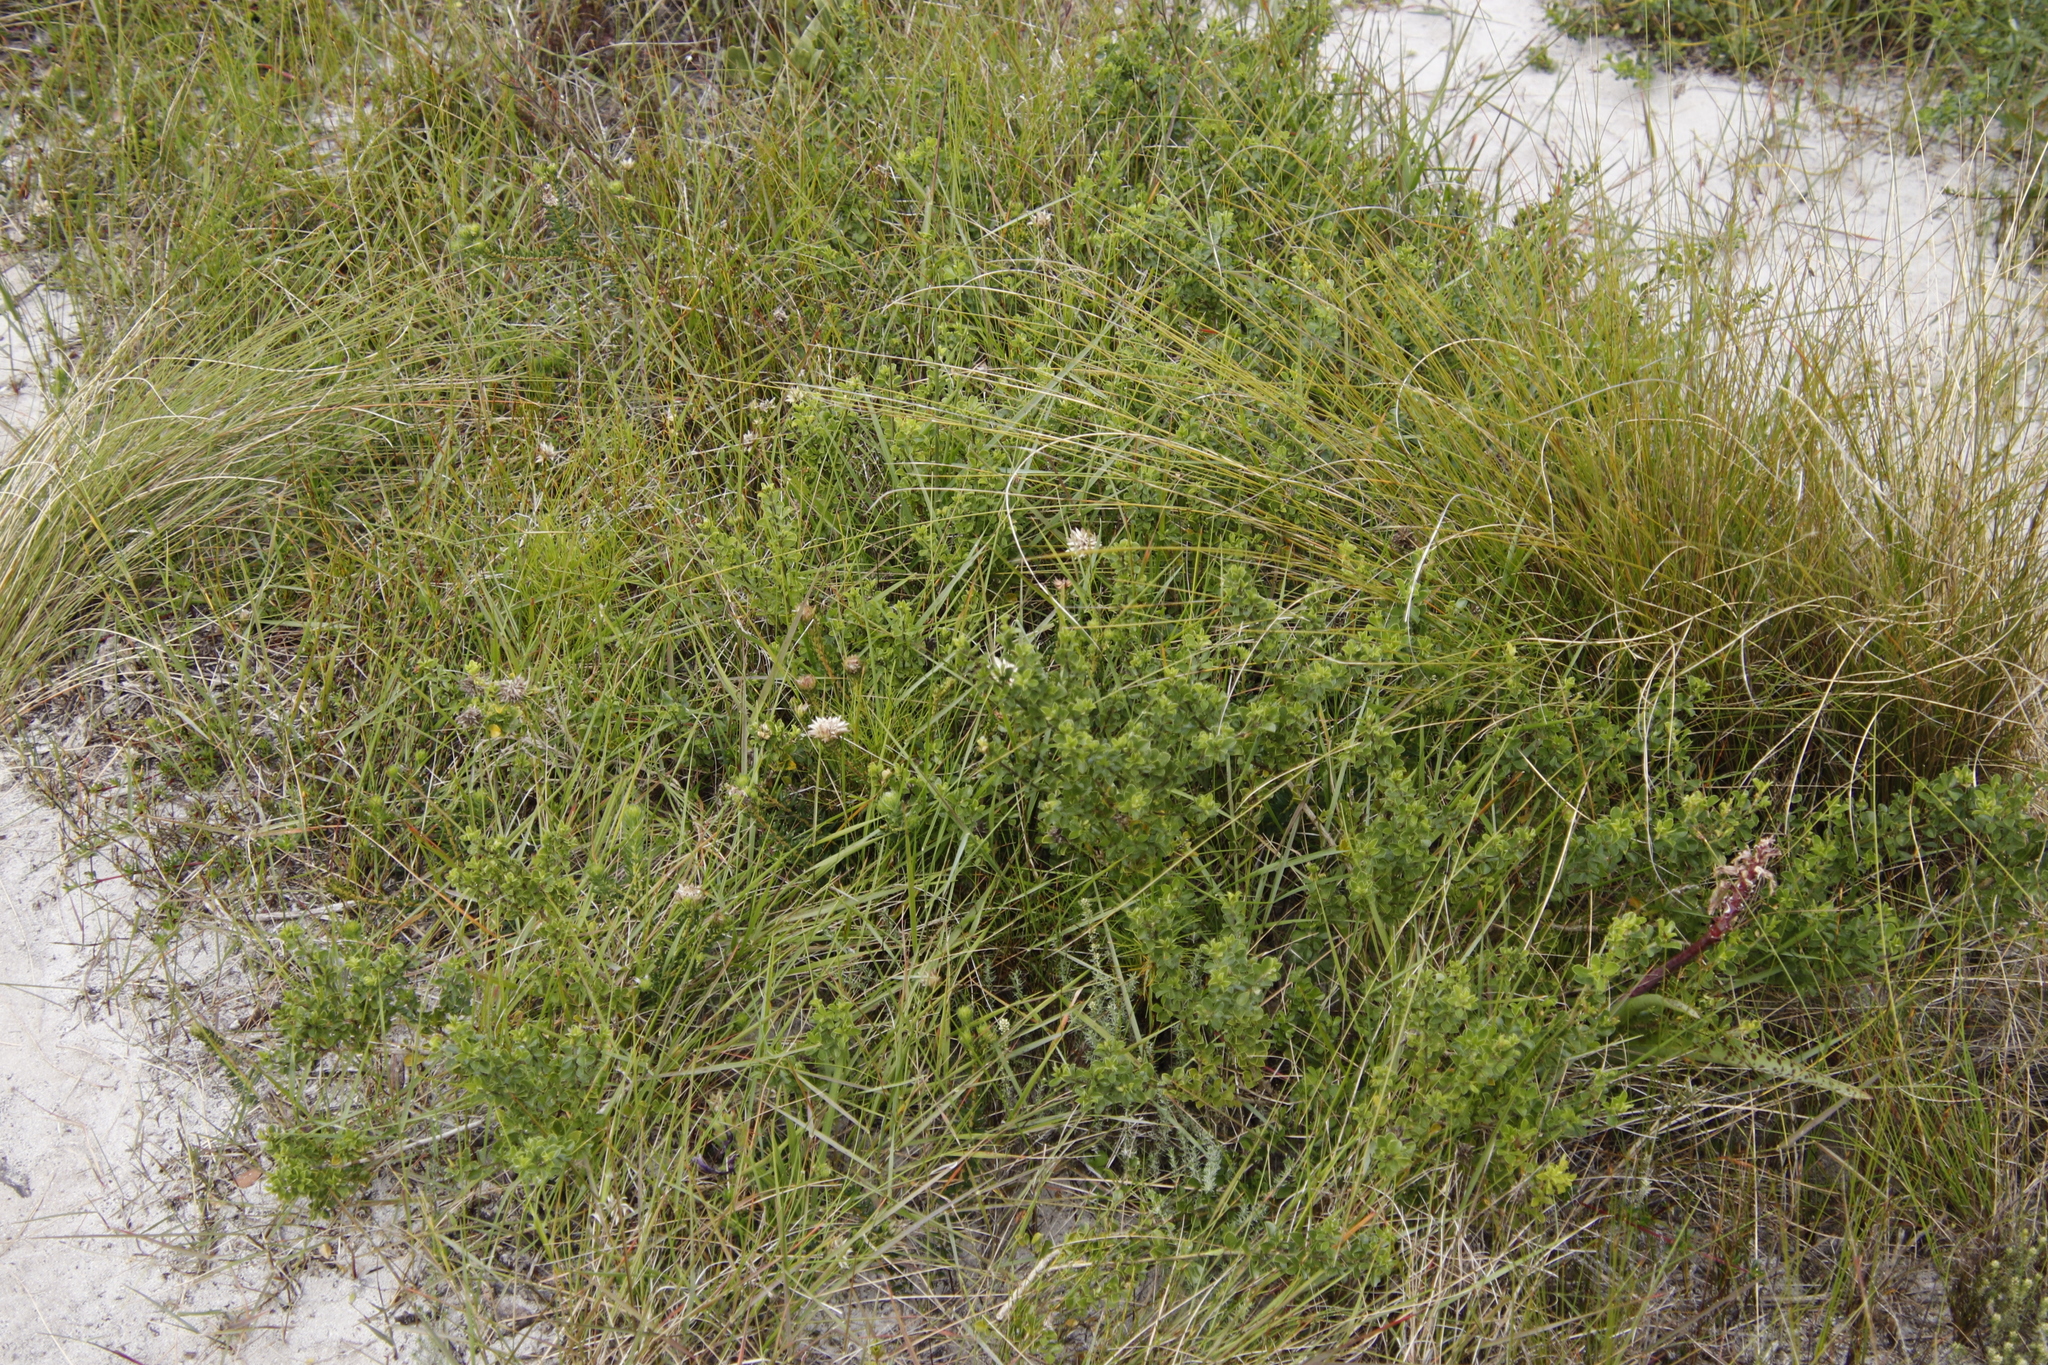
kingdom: Plantae
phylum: Tracheophyta
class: Magnoliopsida
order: Rosales
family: Rhamnaceae
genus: Phylica
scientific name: Phylica dodii
